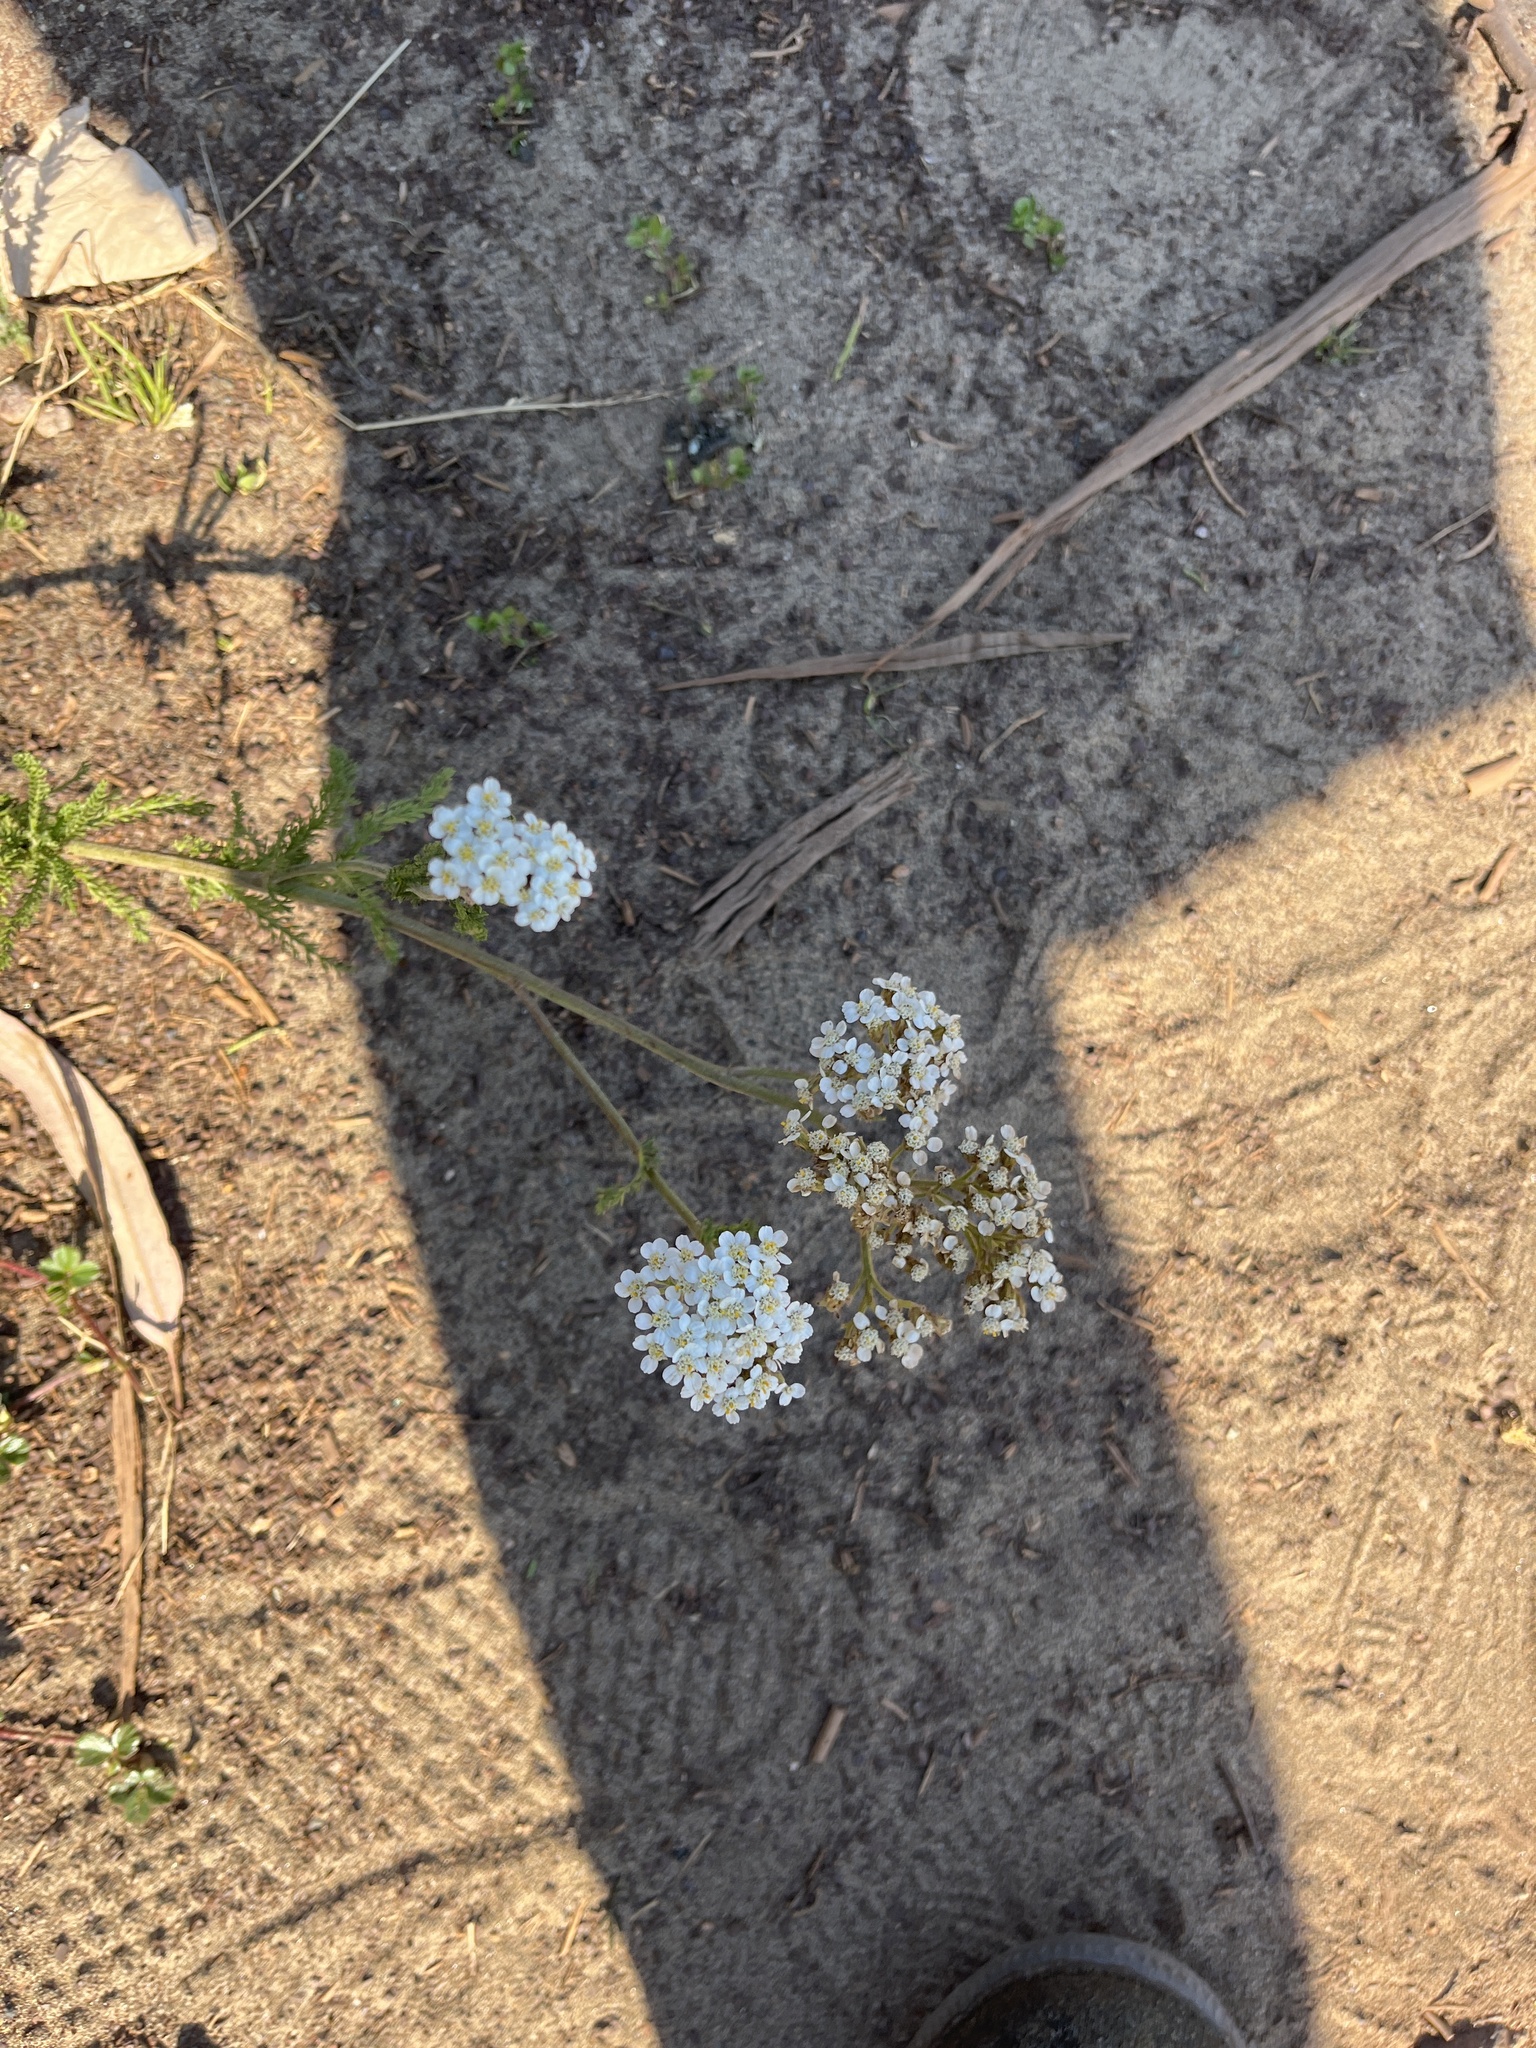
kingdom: Plantae
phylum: Tracheophyta
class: Magnoliopsida
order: Asterales
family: Asteraceae
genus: Achillea
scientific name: Achillea millefolium
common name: Yarrow
